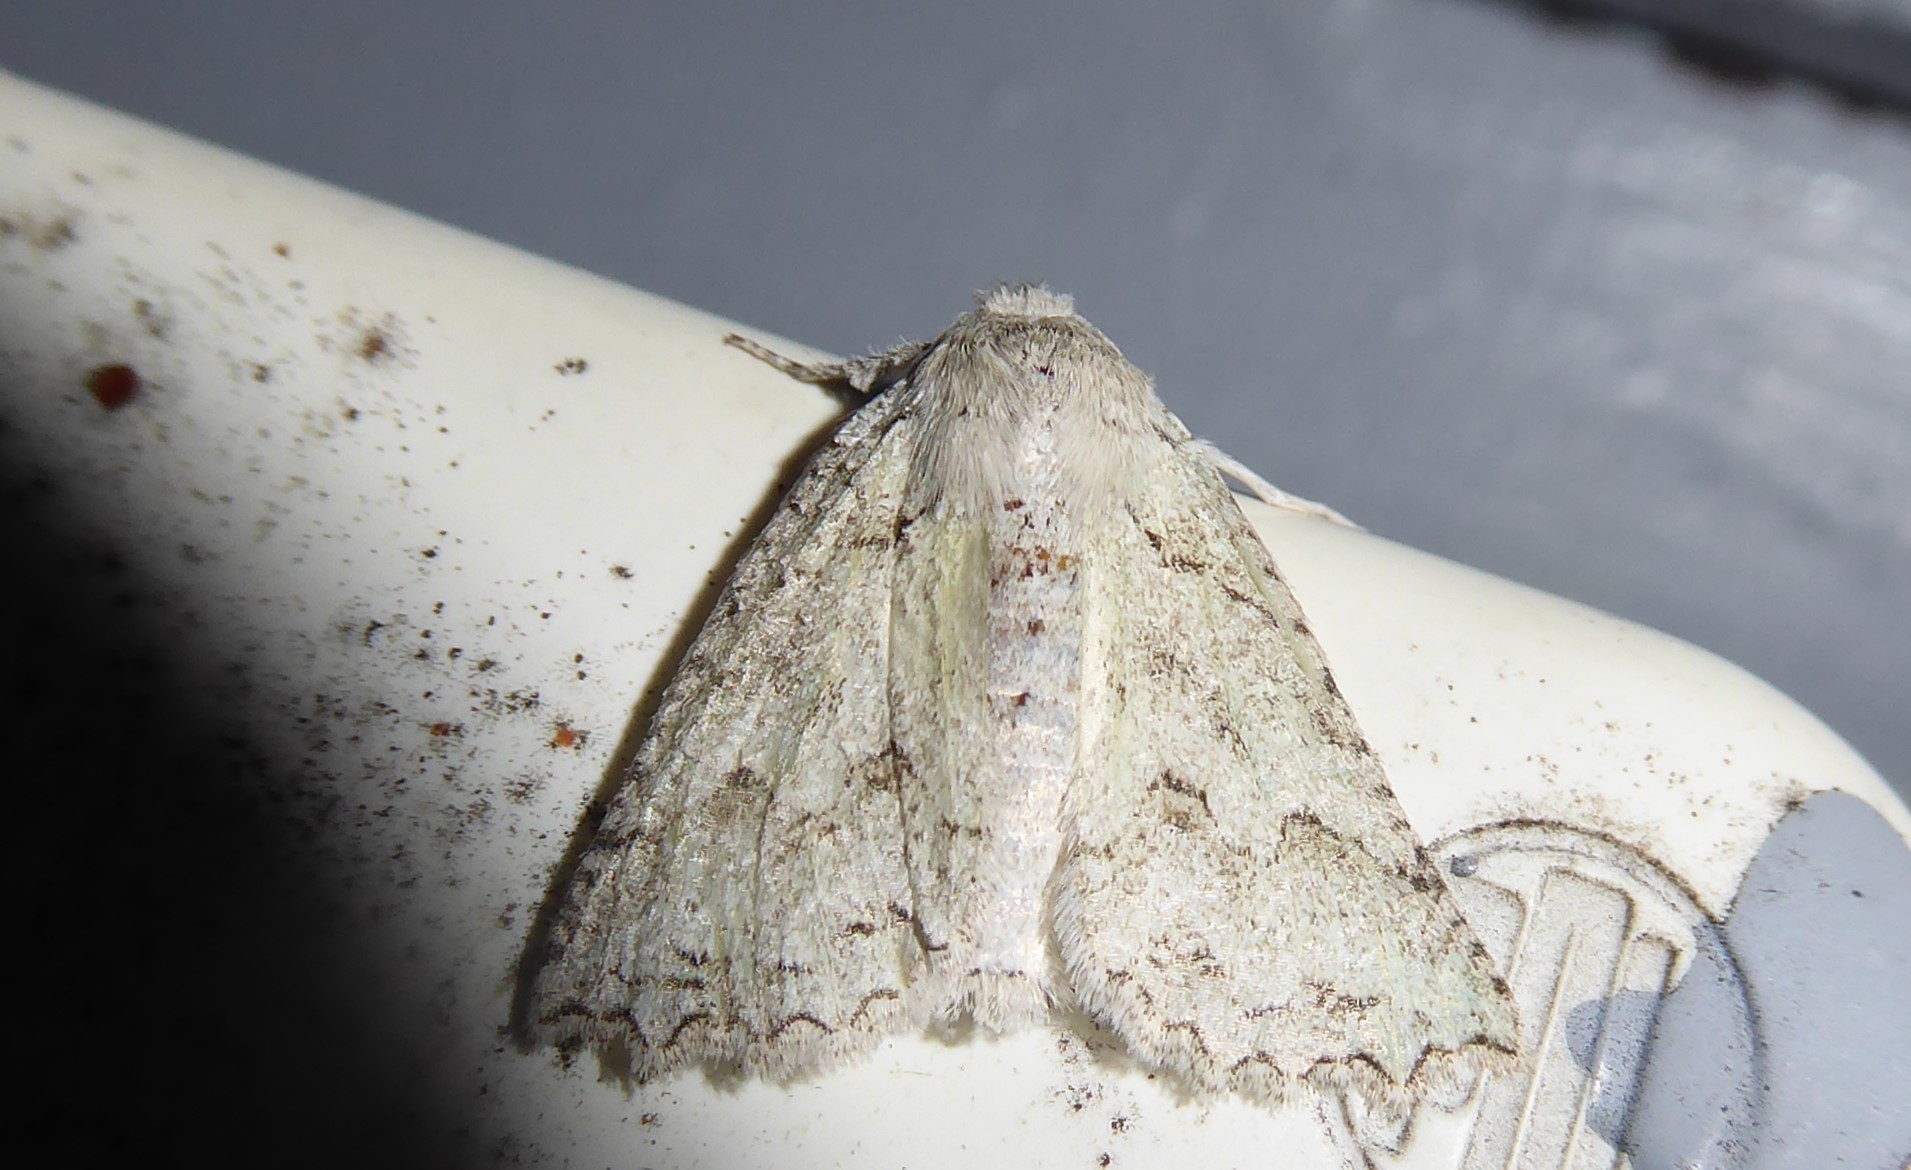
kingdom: Animalia
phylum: Arthropoda
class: Insecta
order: Lepidoptera
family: Geometridae
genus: Declana
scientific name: Declana niveata
